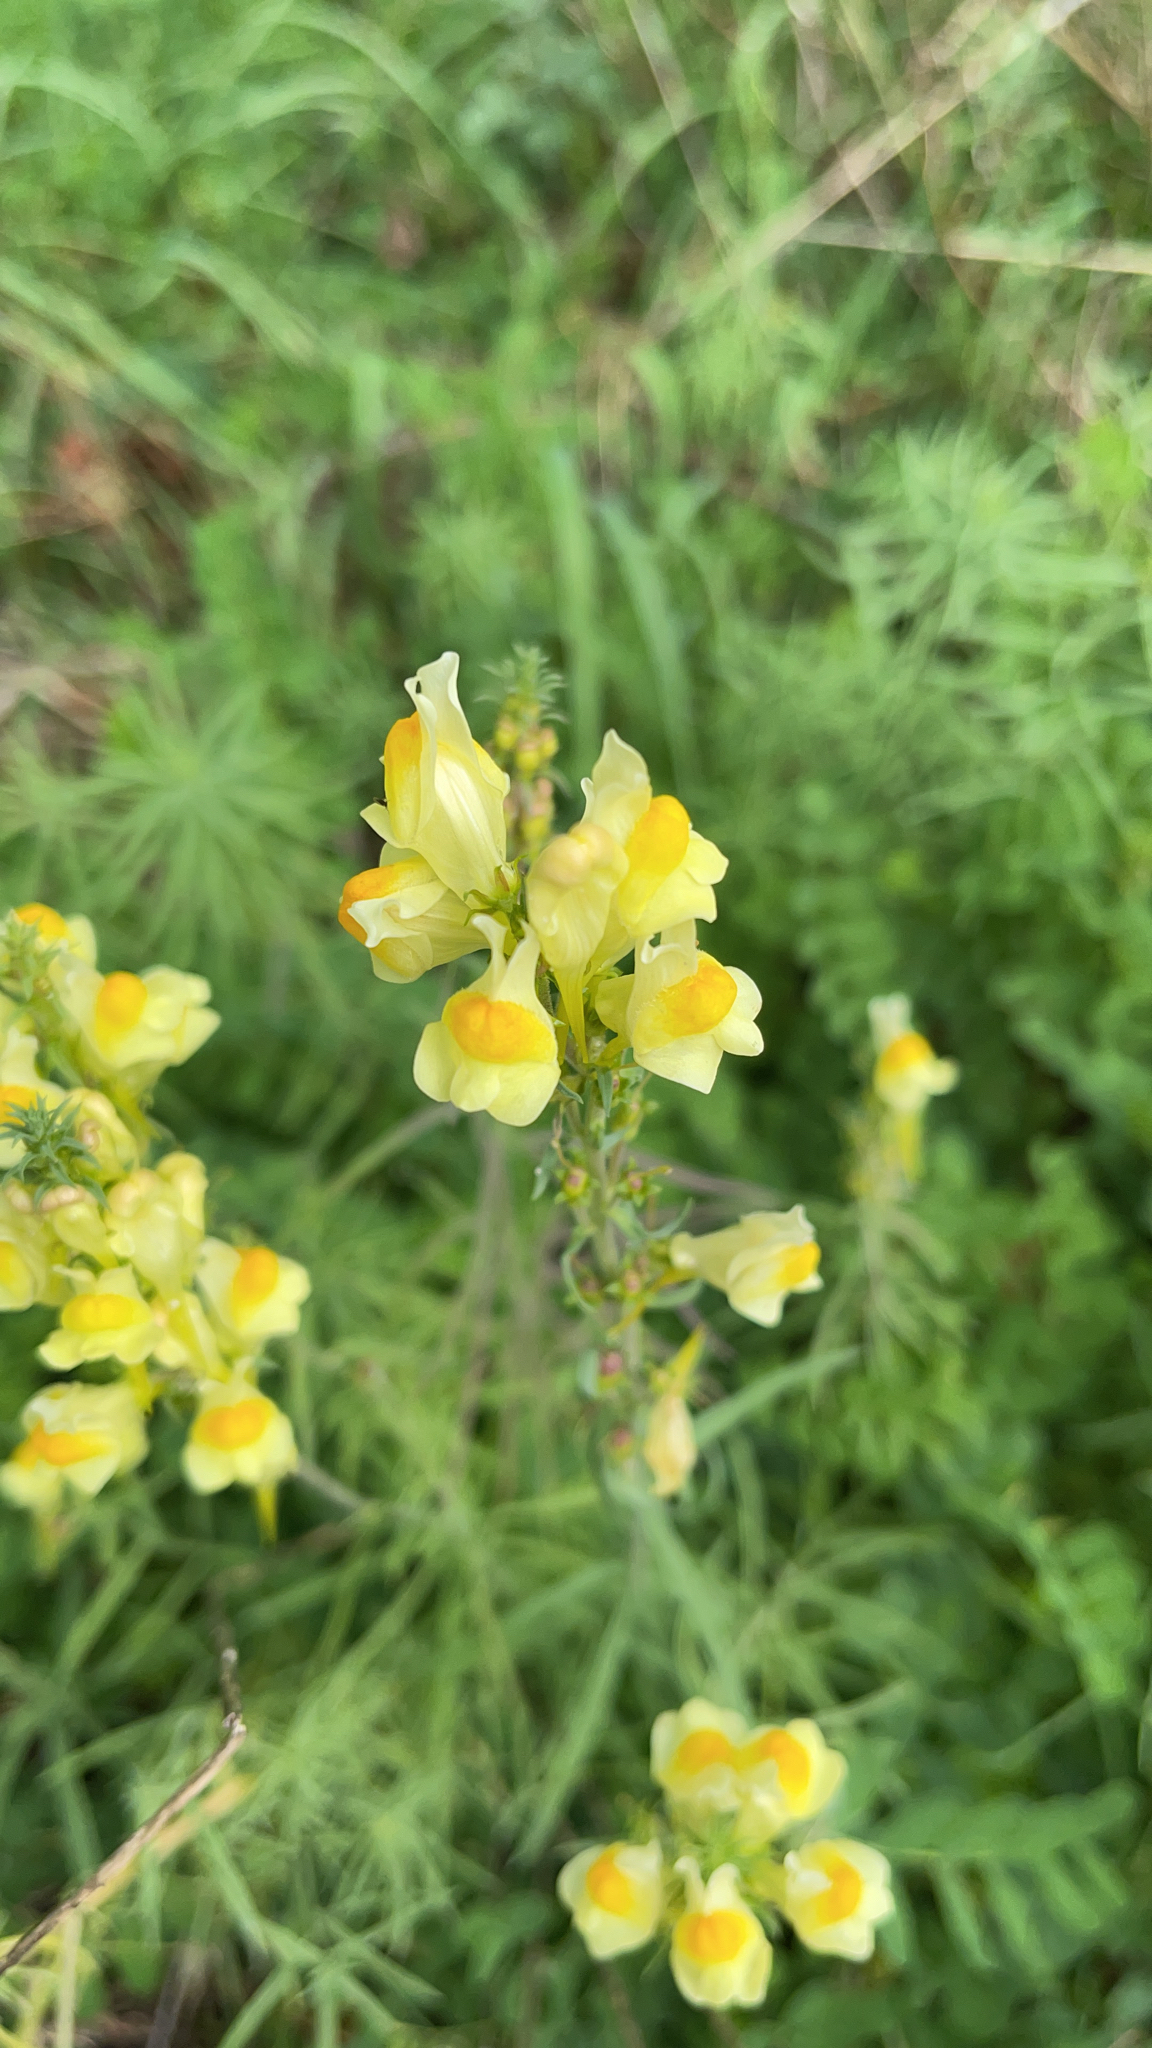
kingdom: Plantae
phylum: Tracheophyta
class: Magnoliopsida
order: Lamiales
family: Plantaginaceae
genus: Linaria
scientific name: Linaria vulgaris
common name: Butter and eggs
